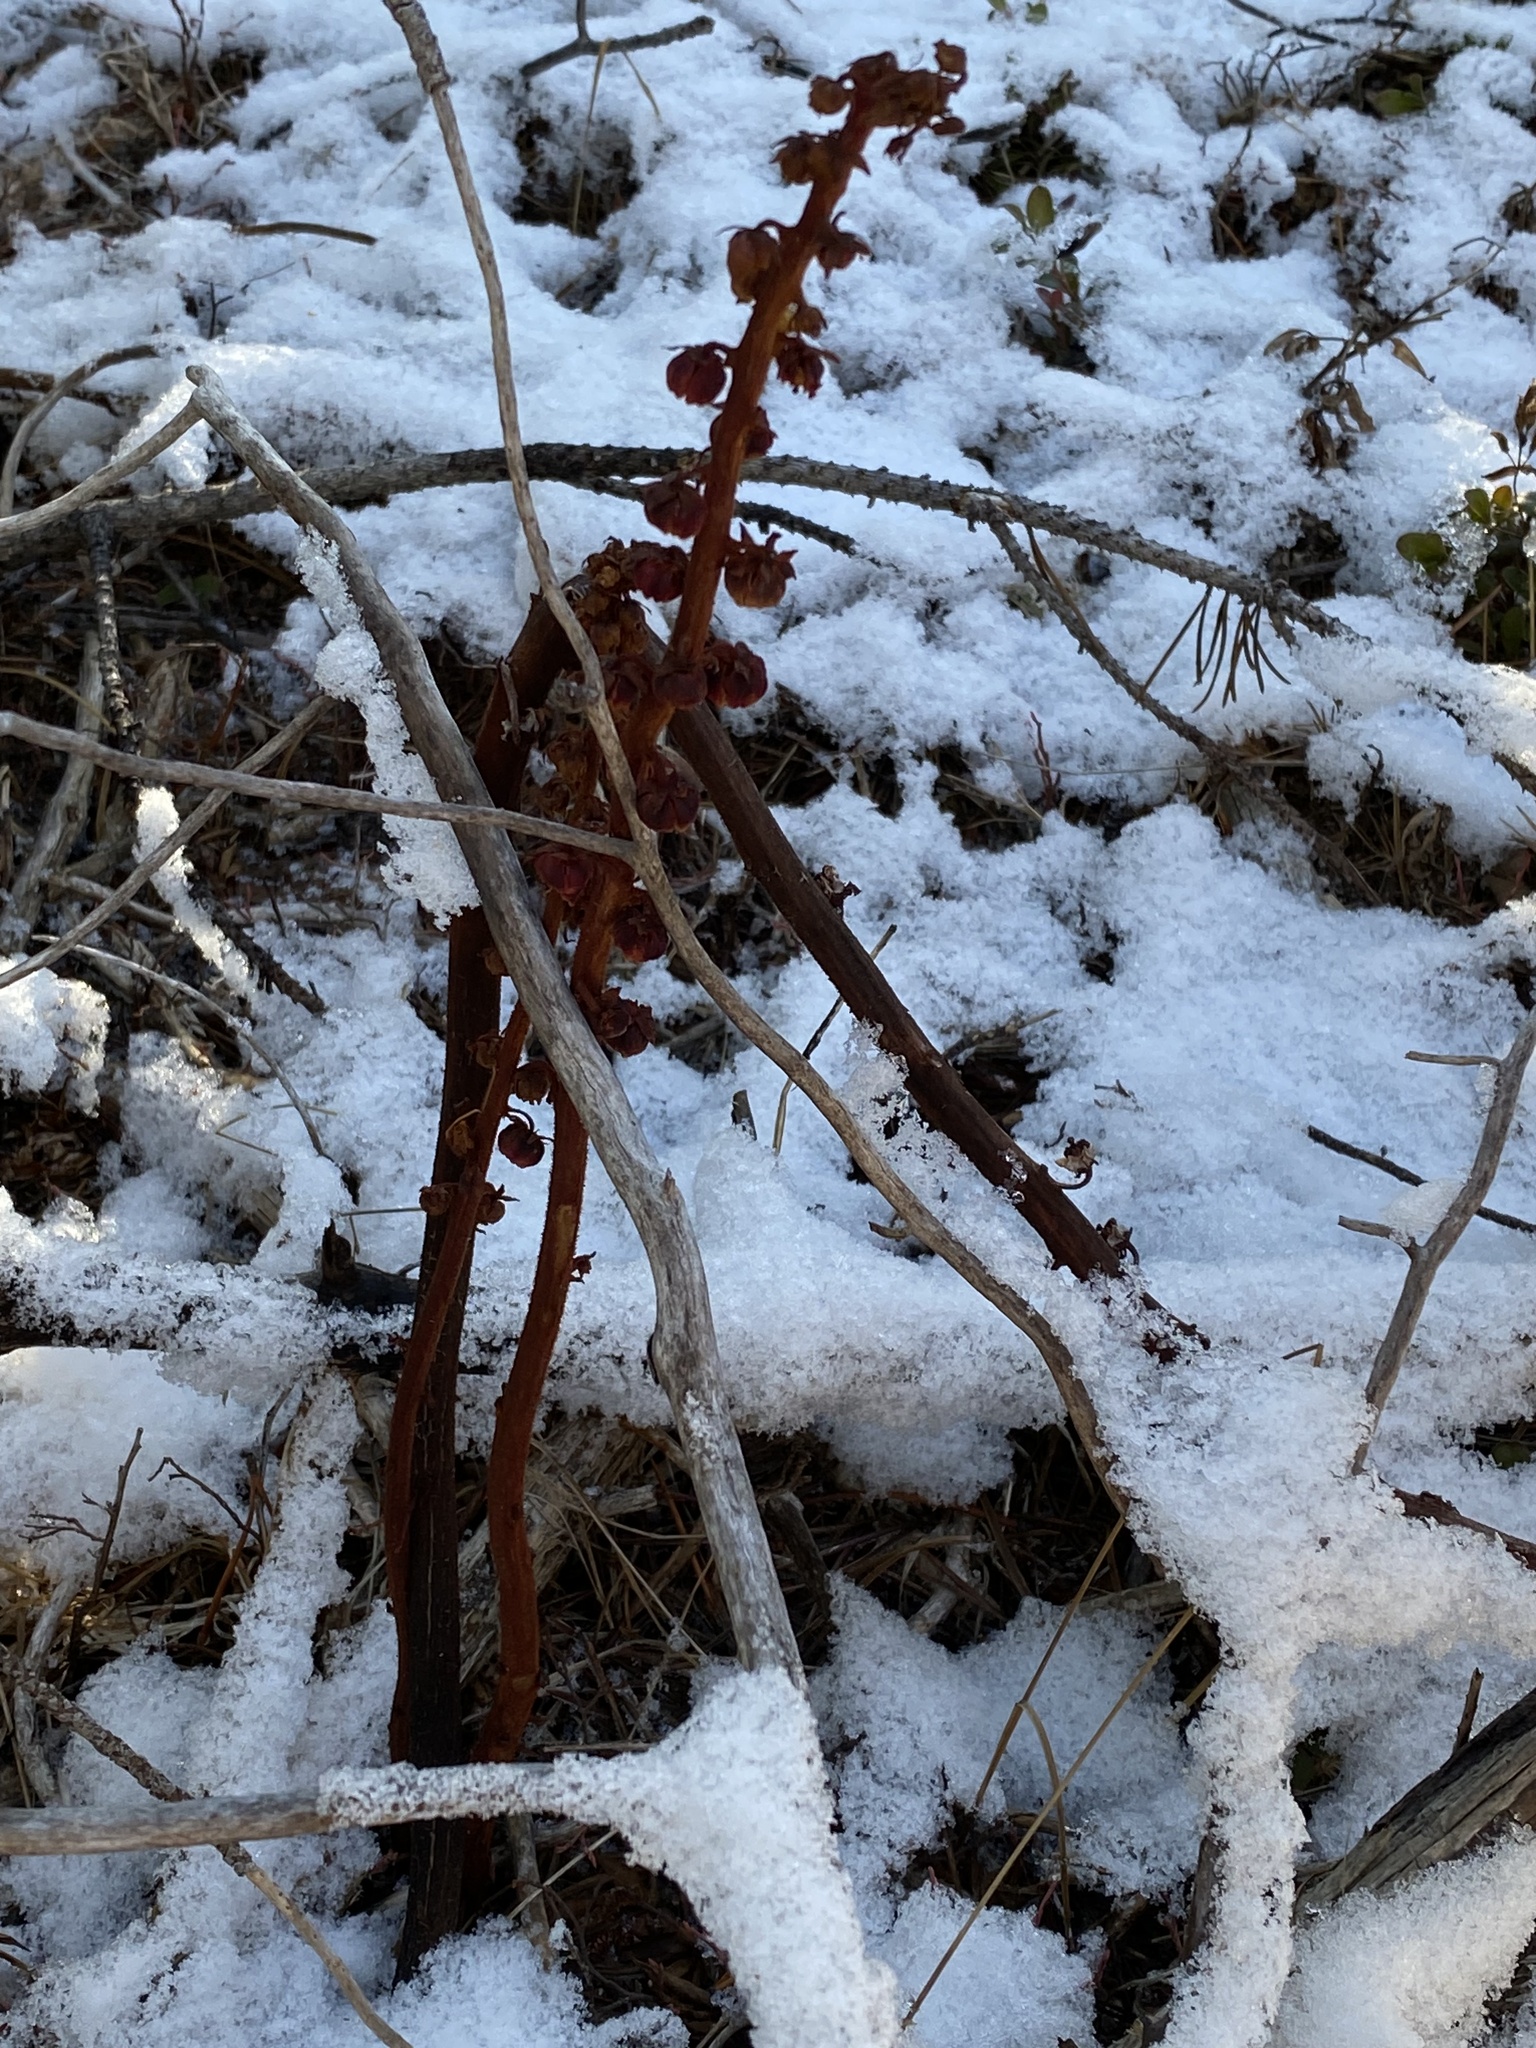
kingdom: Plantae
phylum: Tracheophyta
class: Magnoliopsida
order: Ericales
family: Ericaceae
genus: Pterospora
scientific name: Pterospora andromedea
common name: Giant bird's-nest
